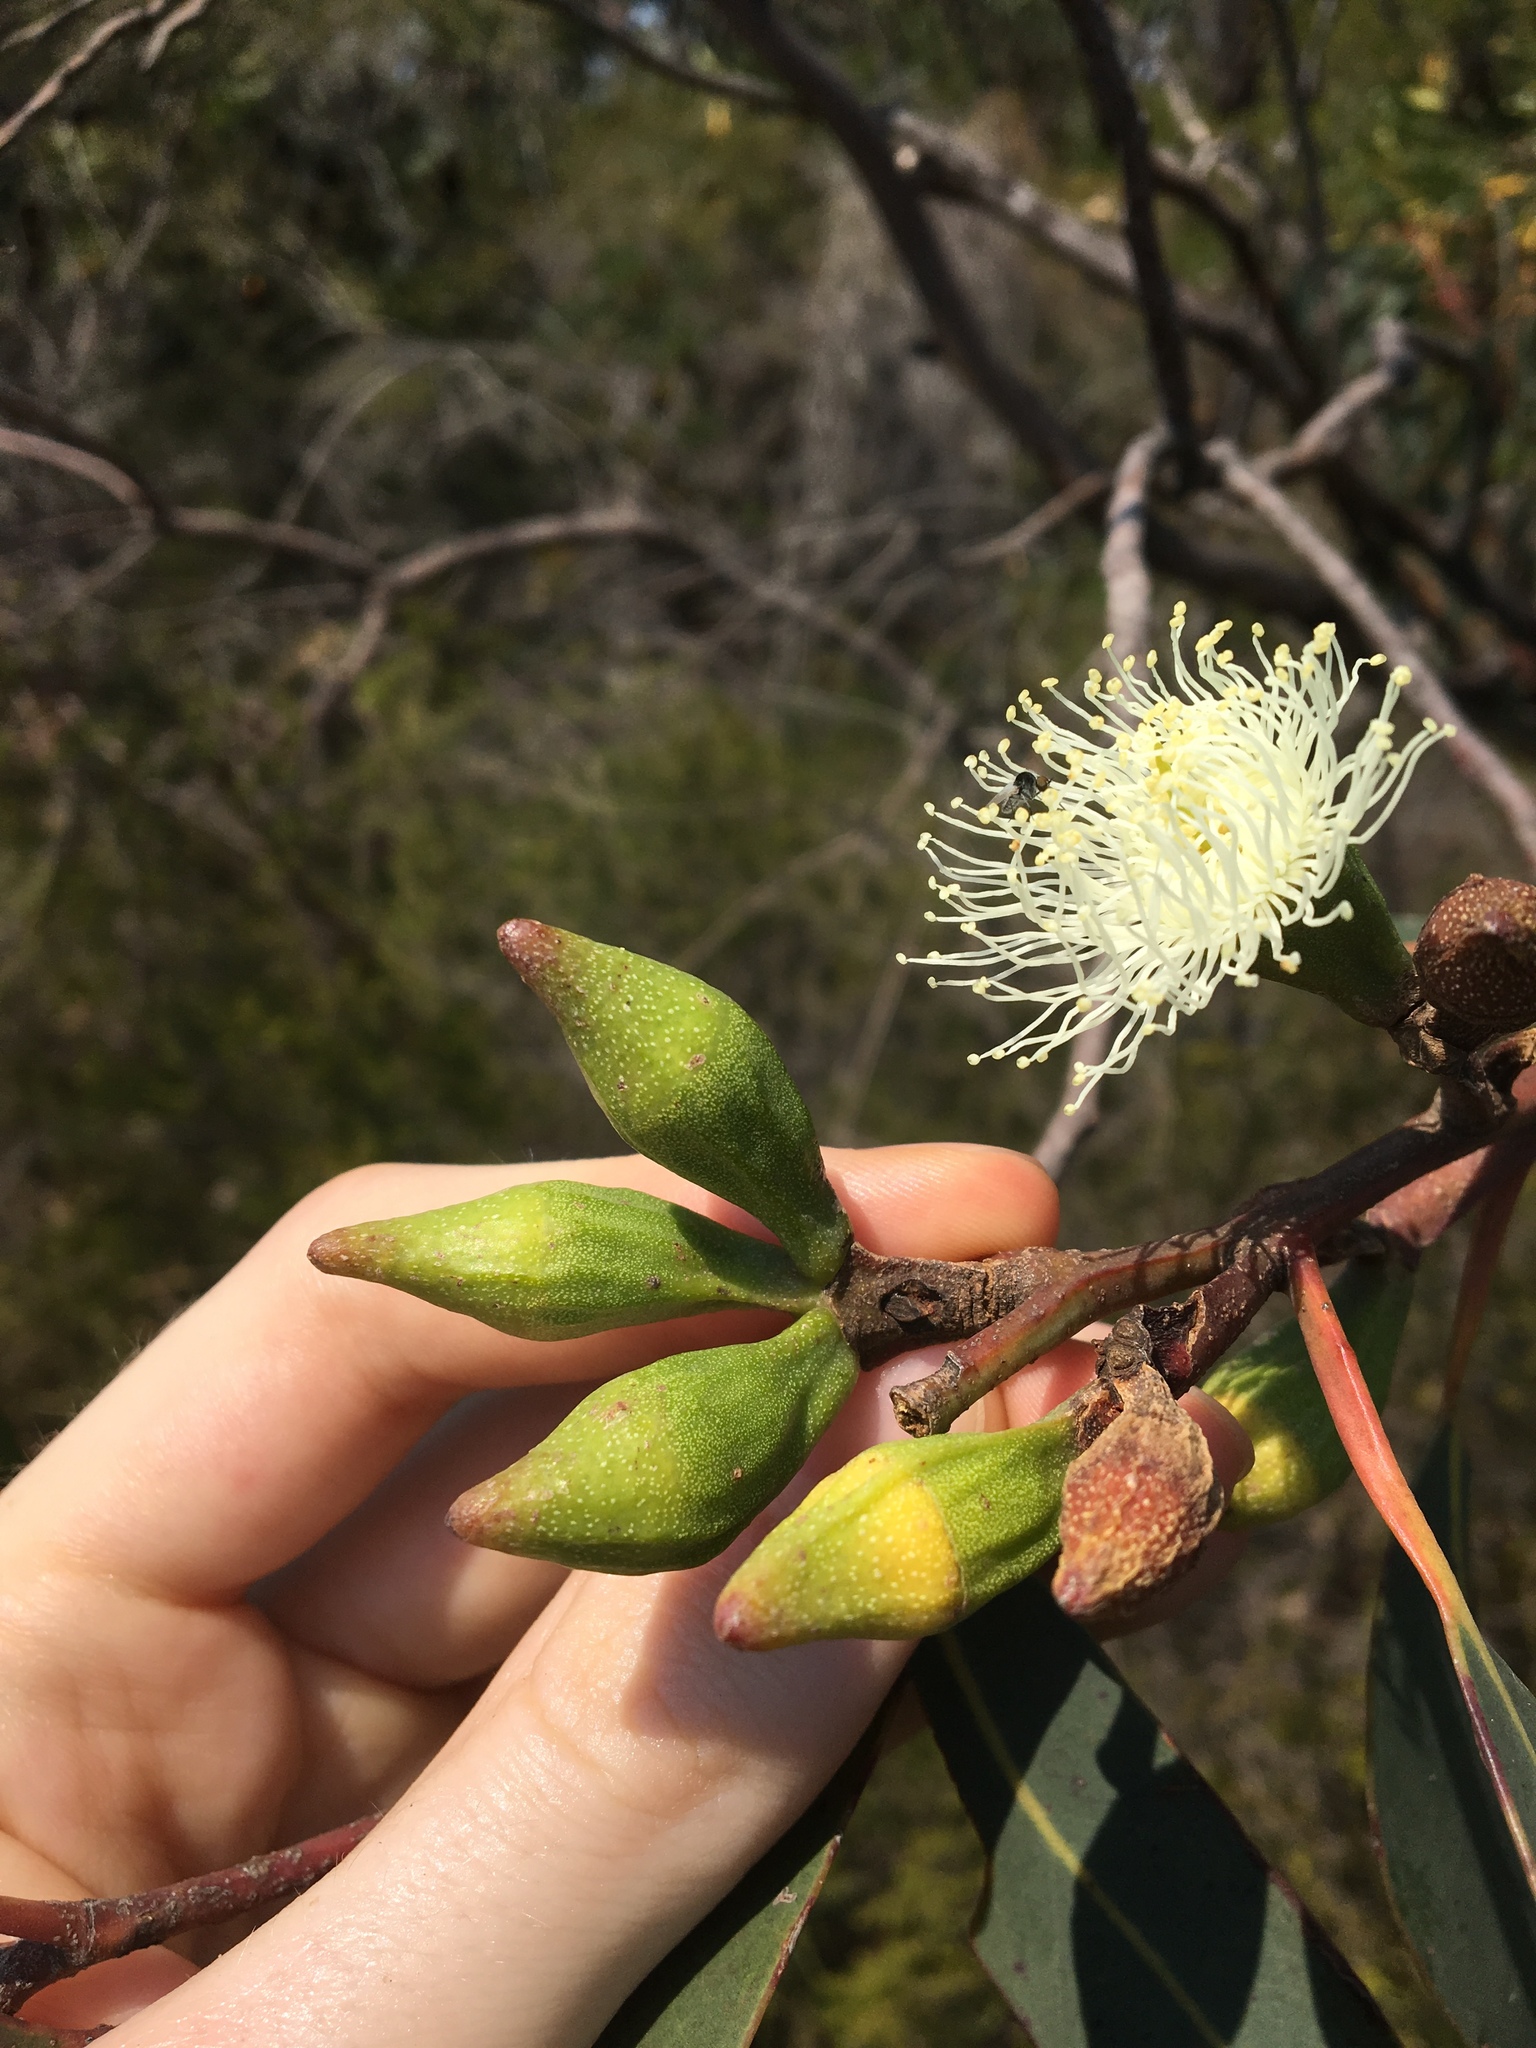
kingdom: Plantae
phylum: Tracheophyta
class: Magnoliopsida
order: Myrtales
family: Myrtaceae
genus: Eucalyptus
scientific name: Eucalyptus planchoniana
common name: Bastard-tallow-wood
